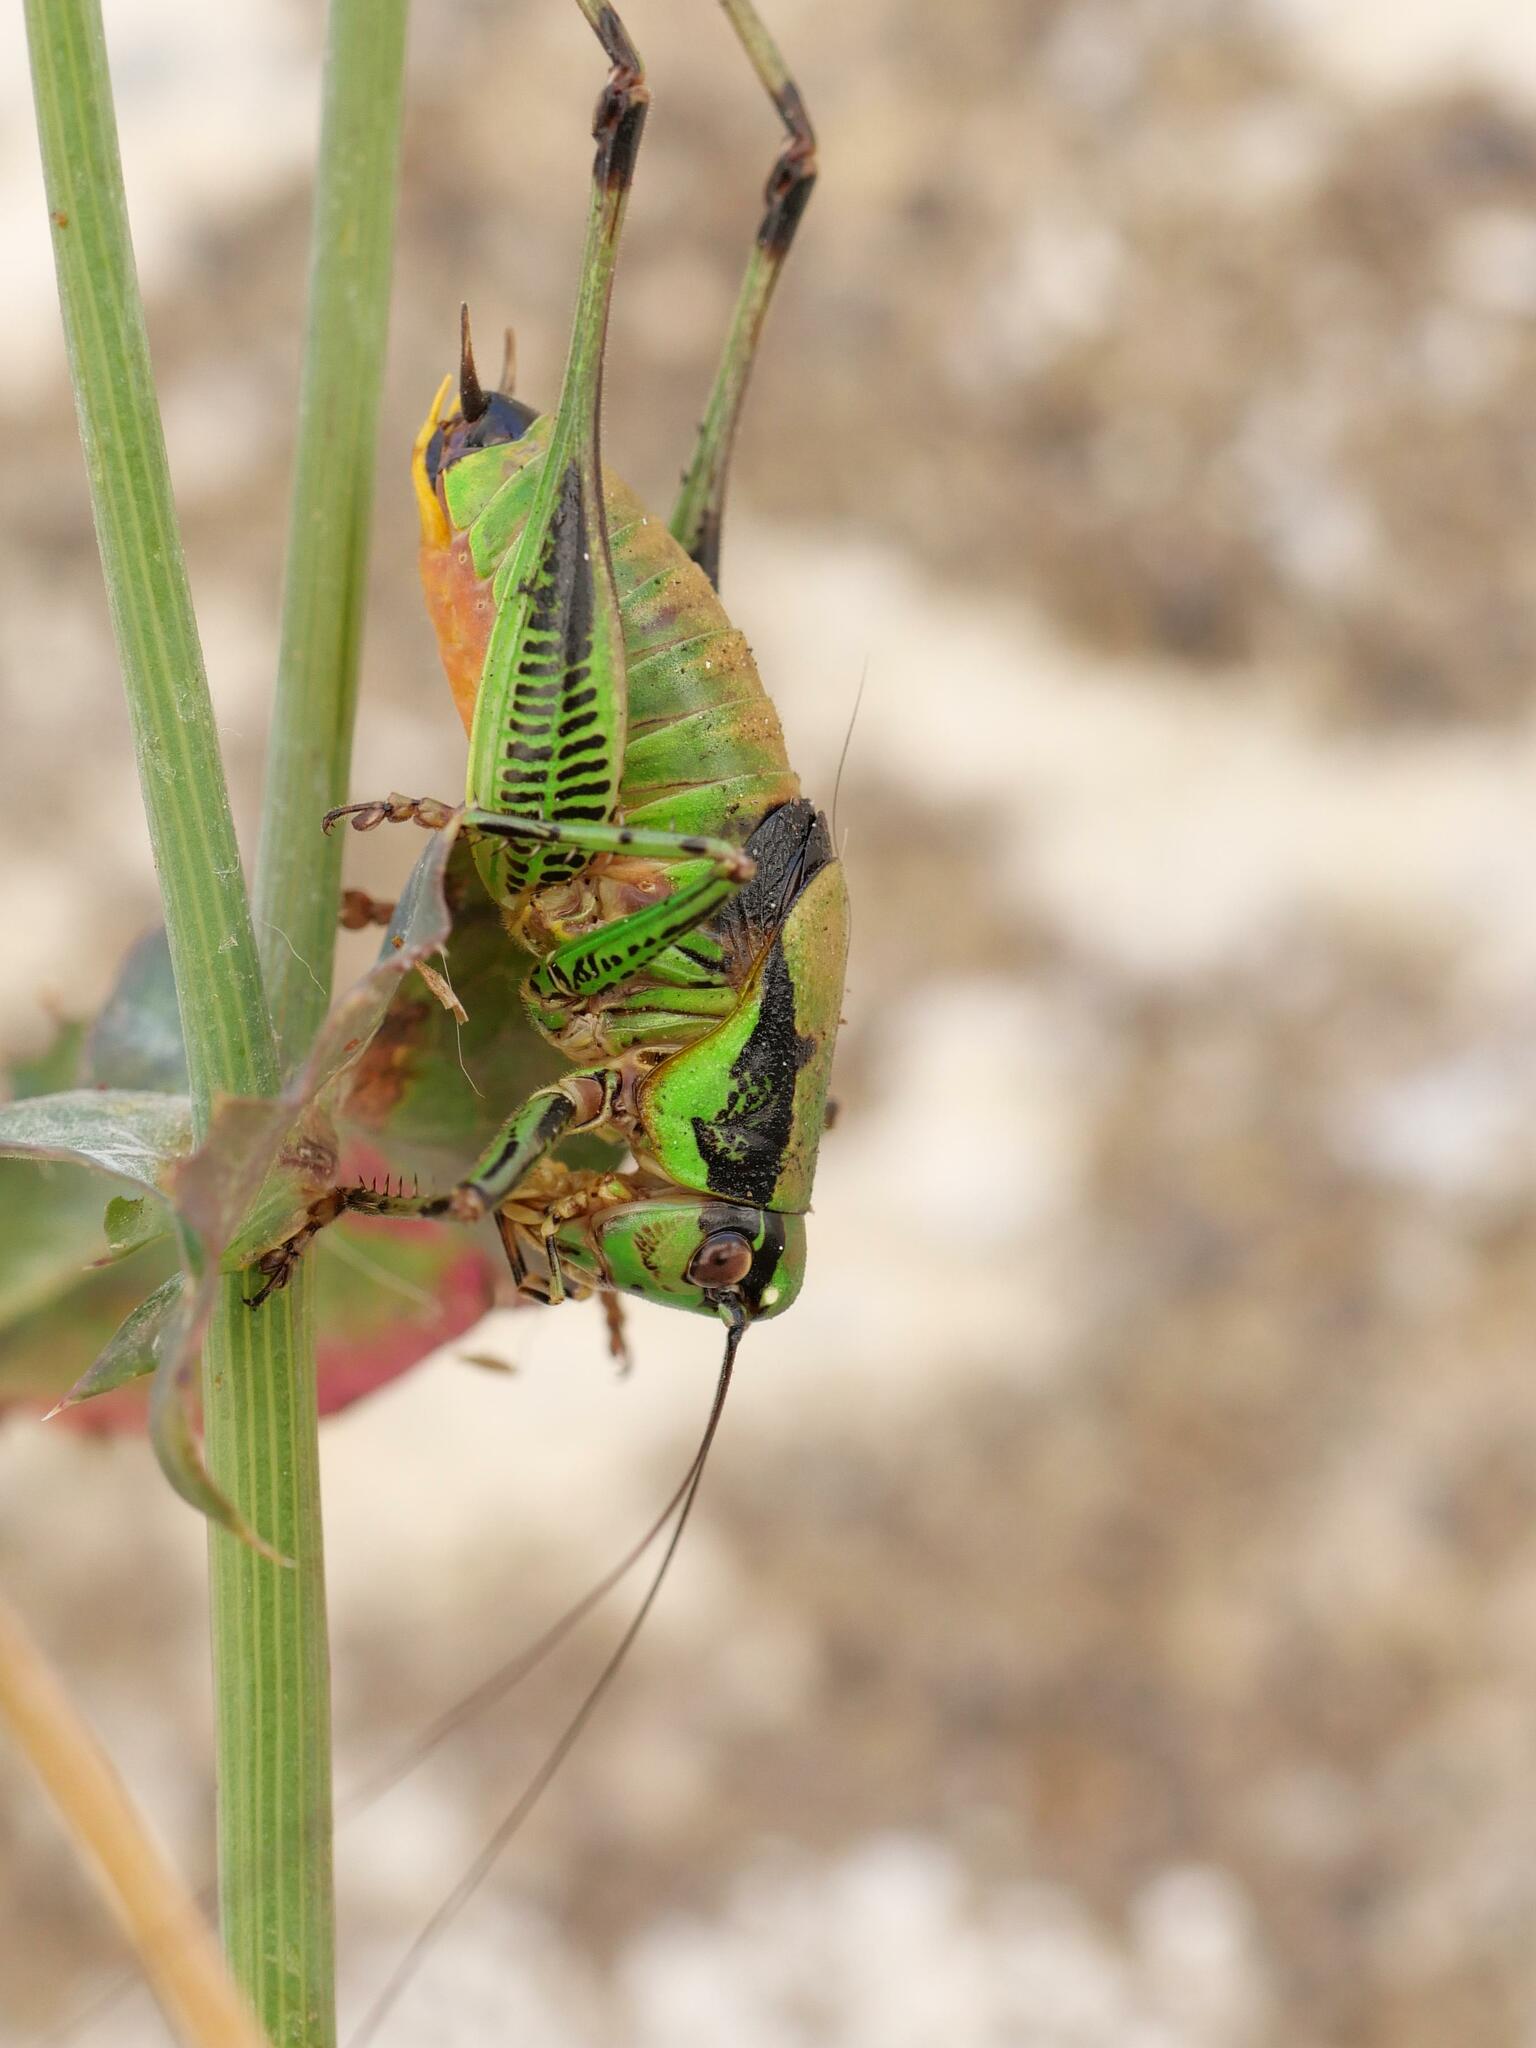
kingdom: Animalia
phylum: Arthropoda
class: Insecta
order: Orthoptera
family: Tettigoniidae
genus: Eupholidoptera
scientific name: Eupholidoptera garganica
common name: Gargano marbled bush-cricket
